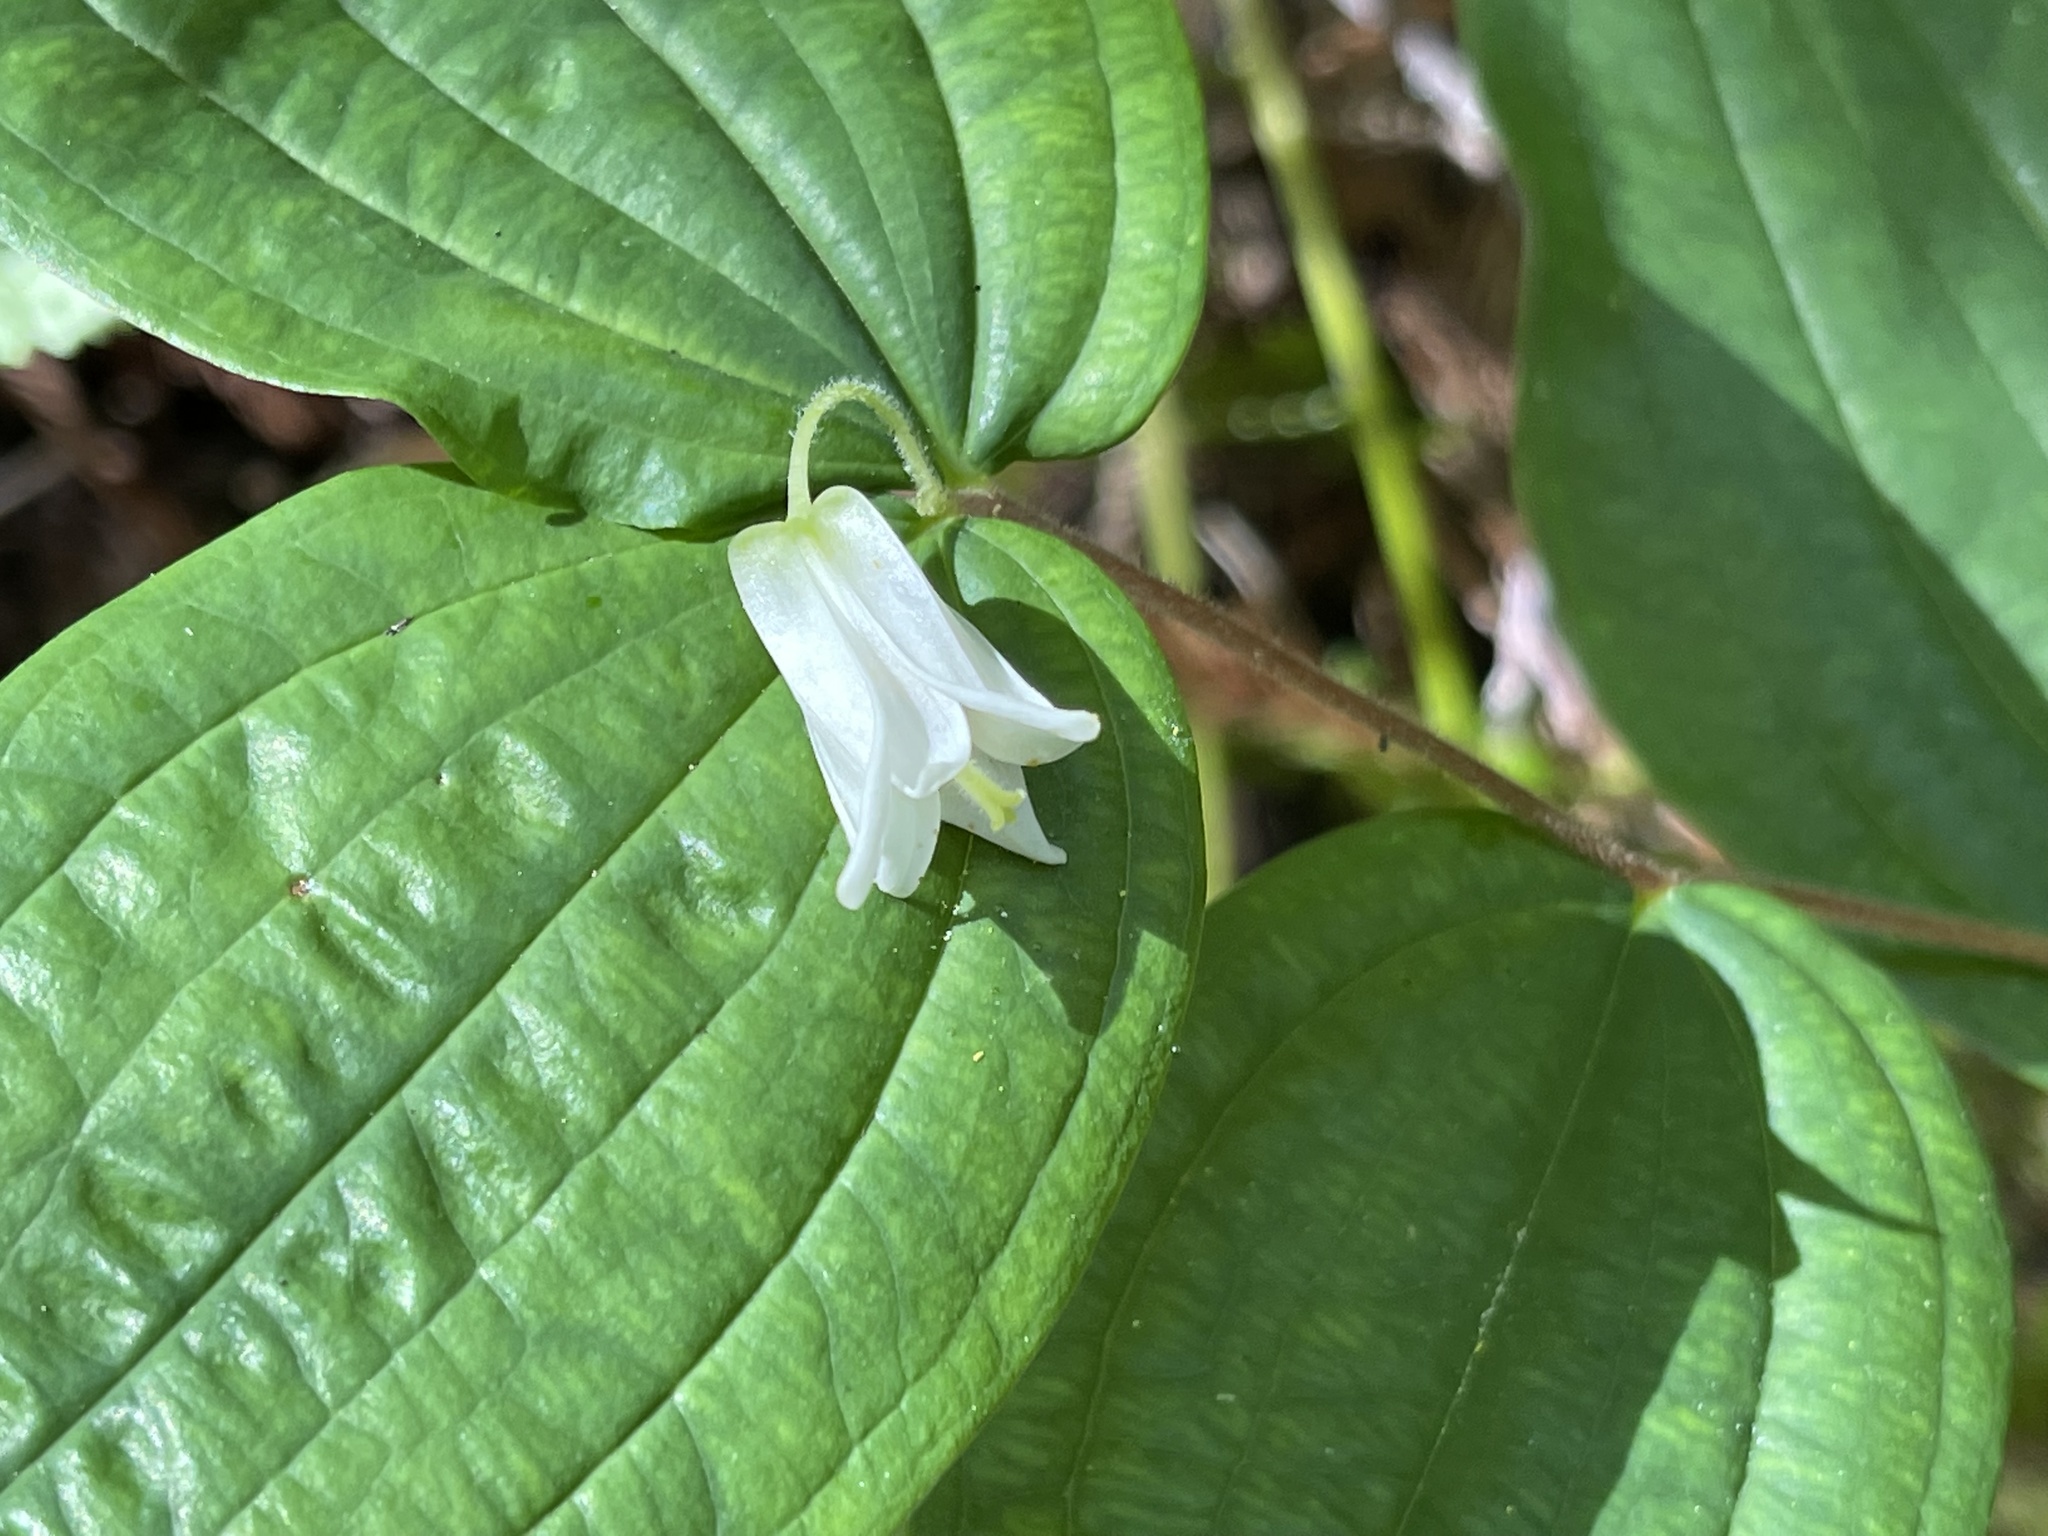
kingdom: Plantae
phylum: Tracheophyta
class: Liliopsida
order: Liliales
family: Liliaceae
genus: Prosartes
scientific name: Prosartes smithii
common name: Fairy-lantern
